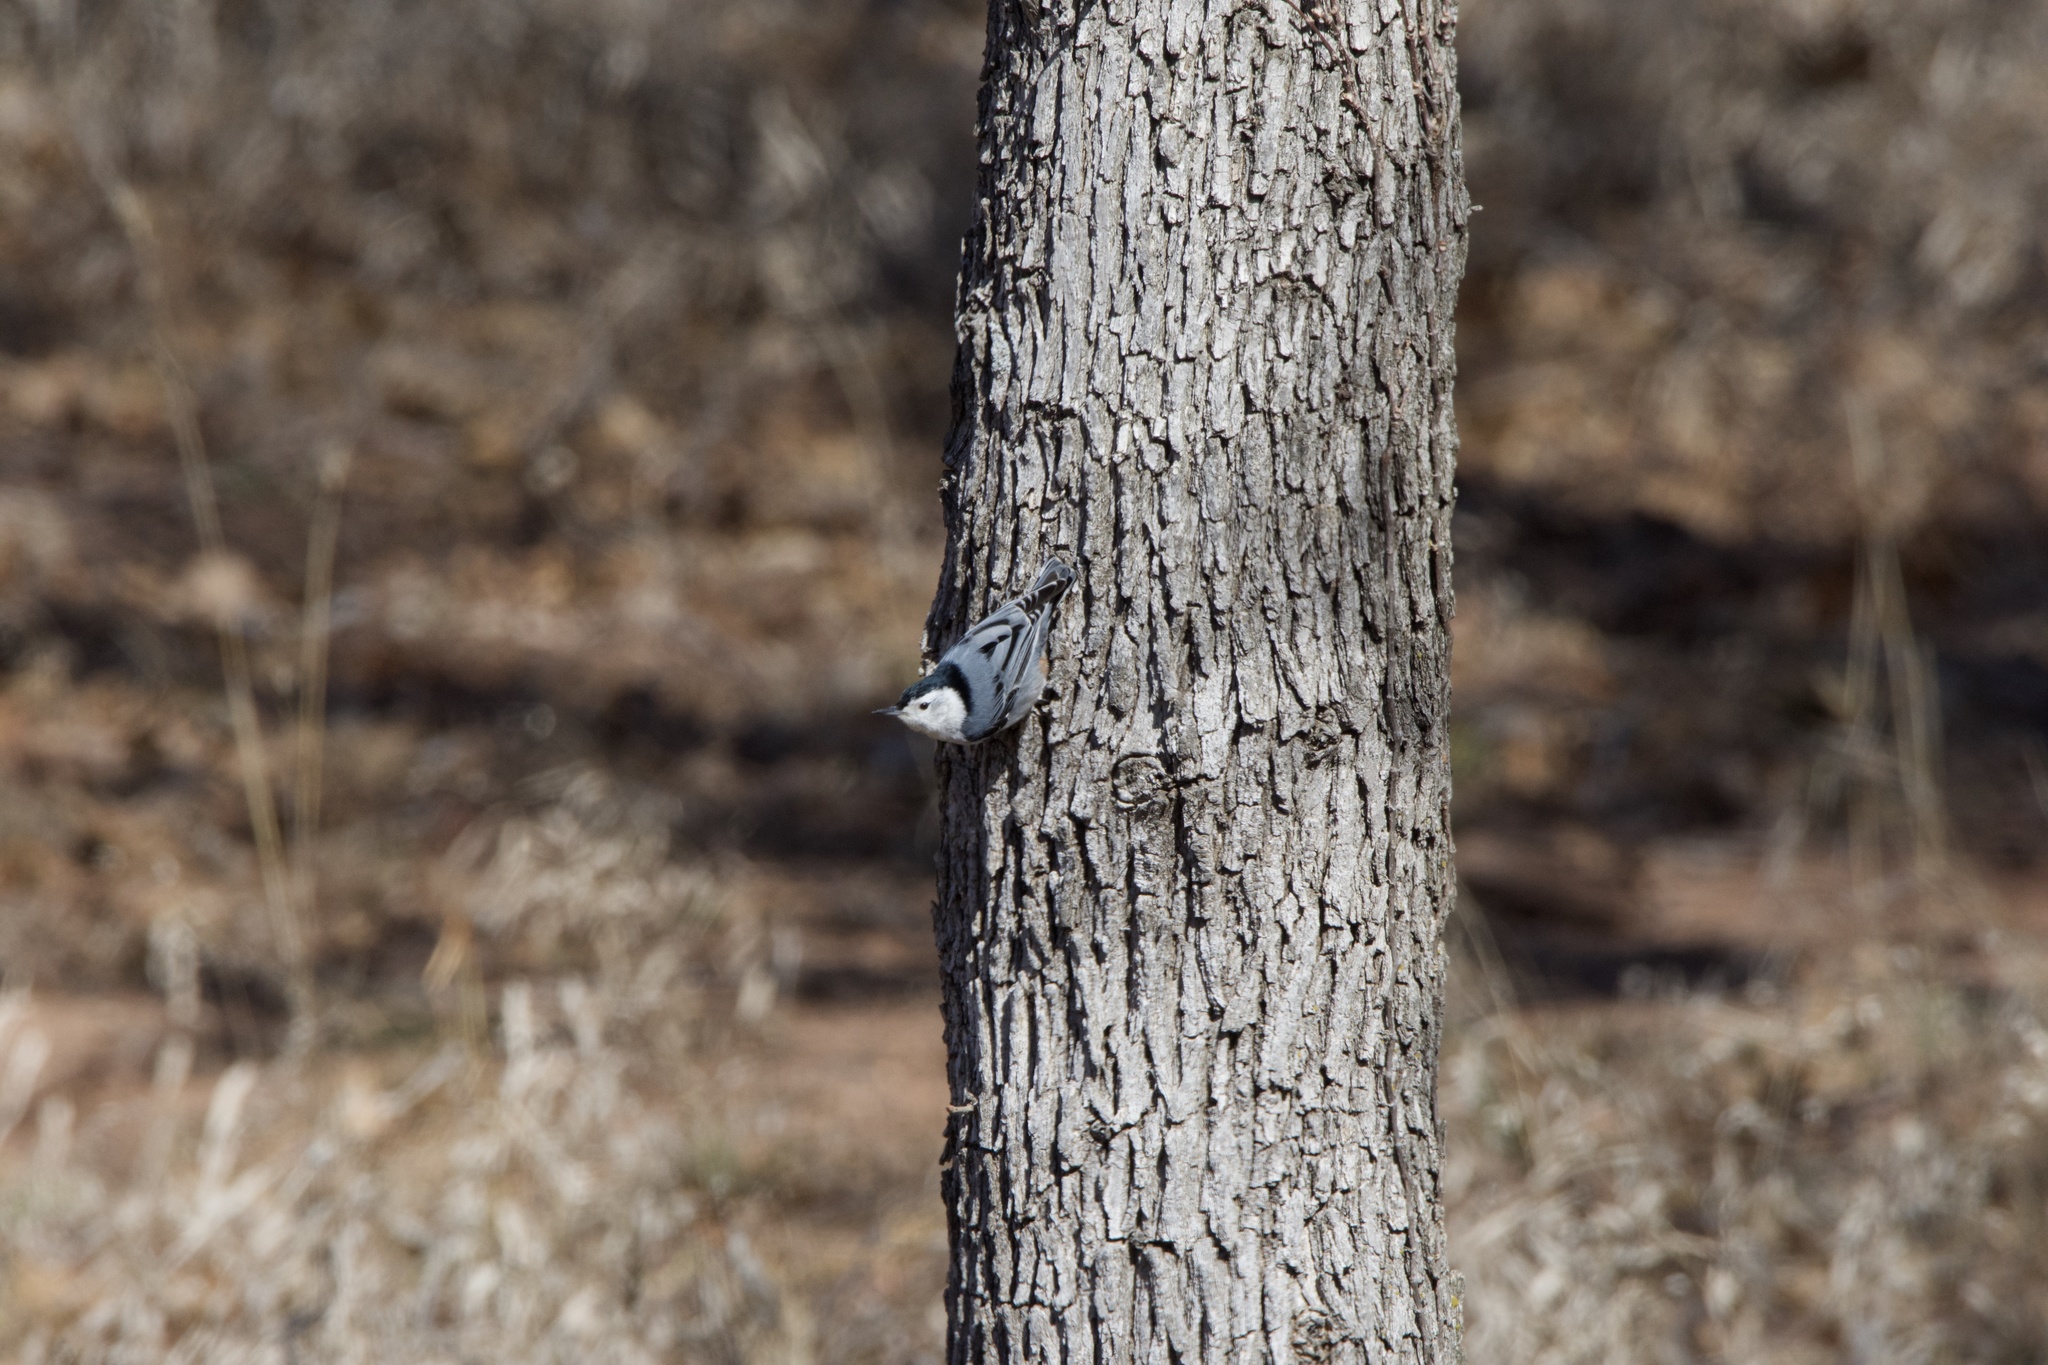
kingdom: Animalia
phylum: Chordata
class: Aves
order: Passeriformes
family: Sittidae
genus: Sitta
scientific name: Sitta carolinensis
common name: White-breasted nuthatch
